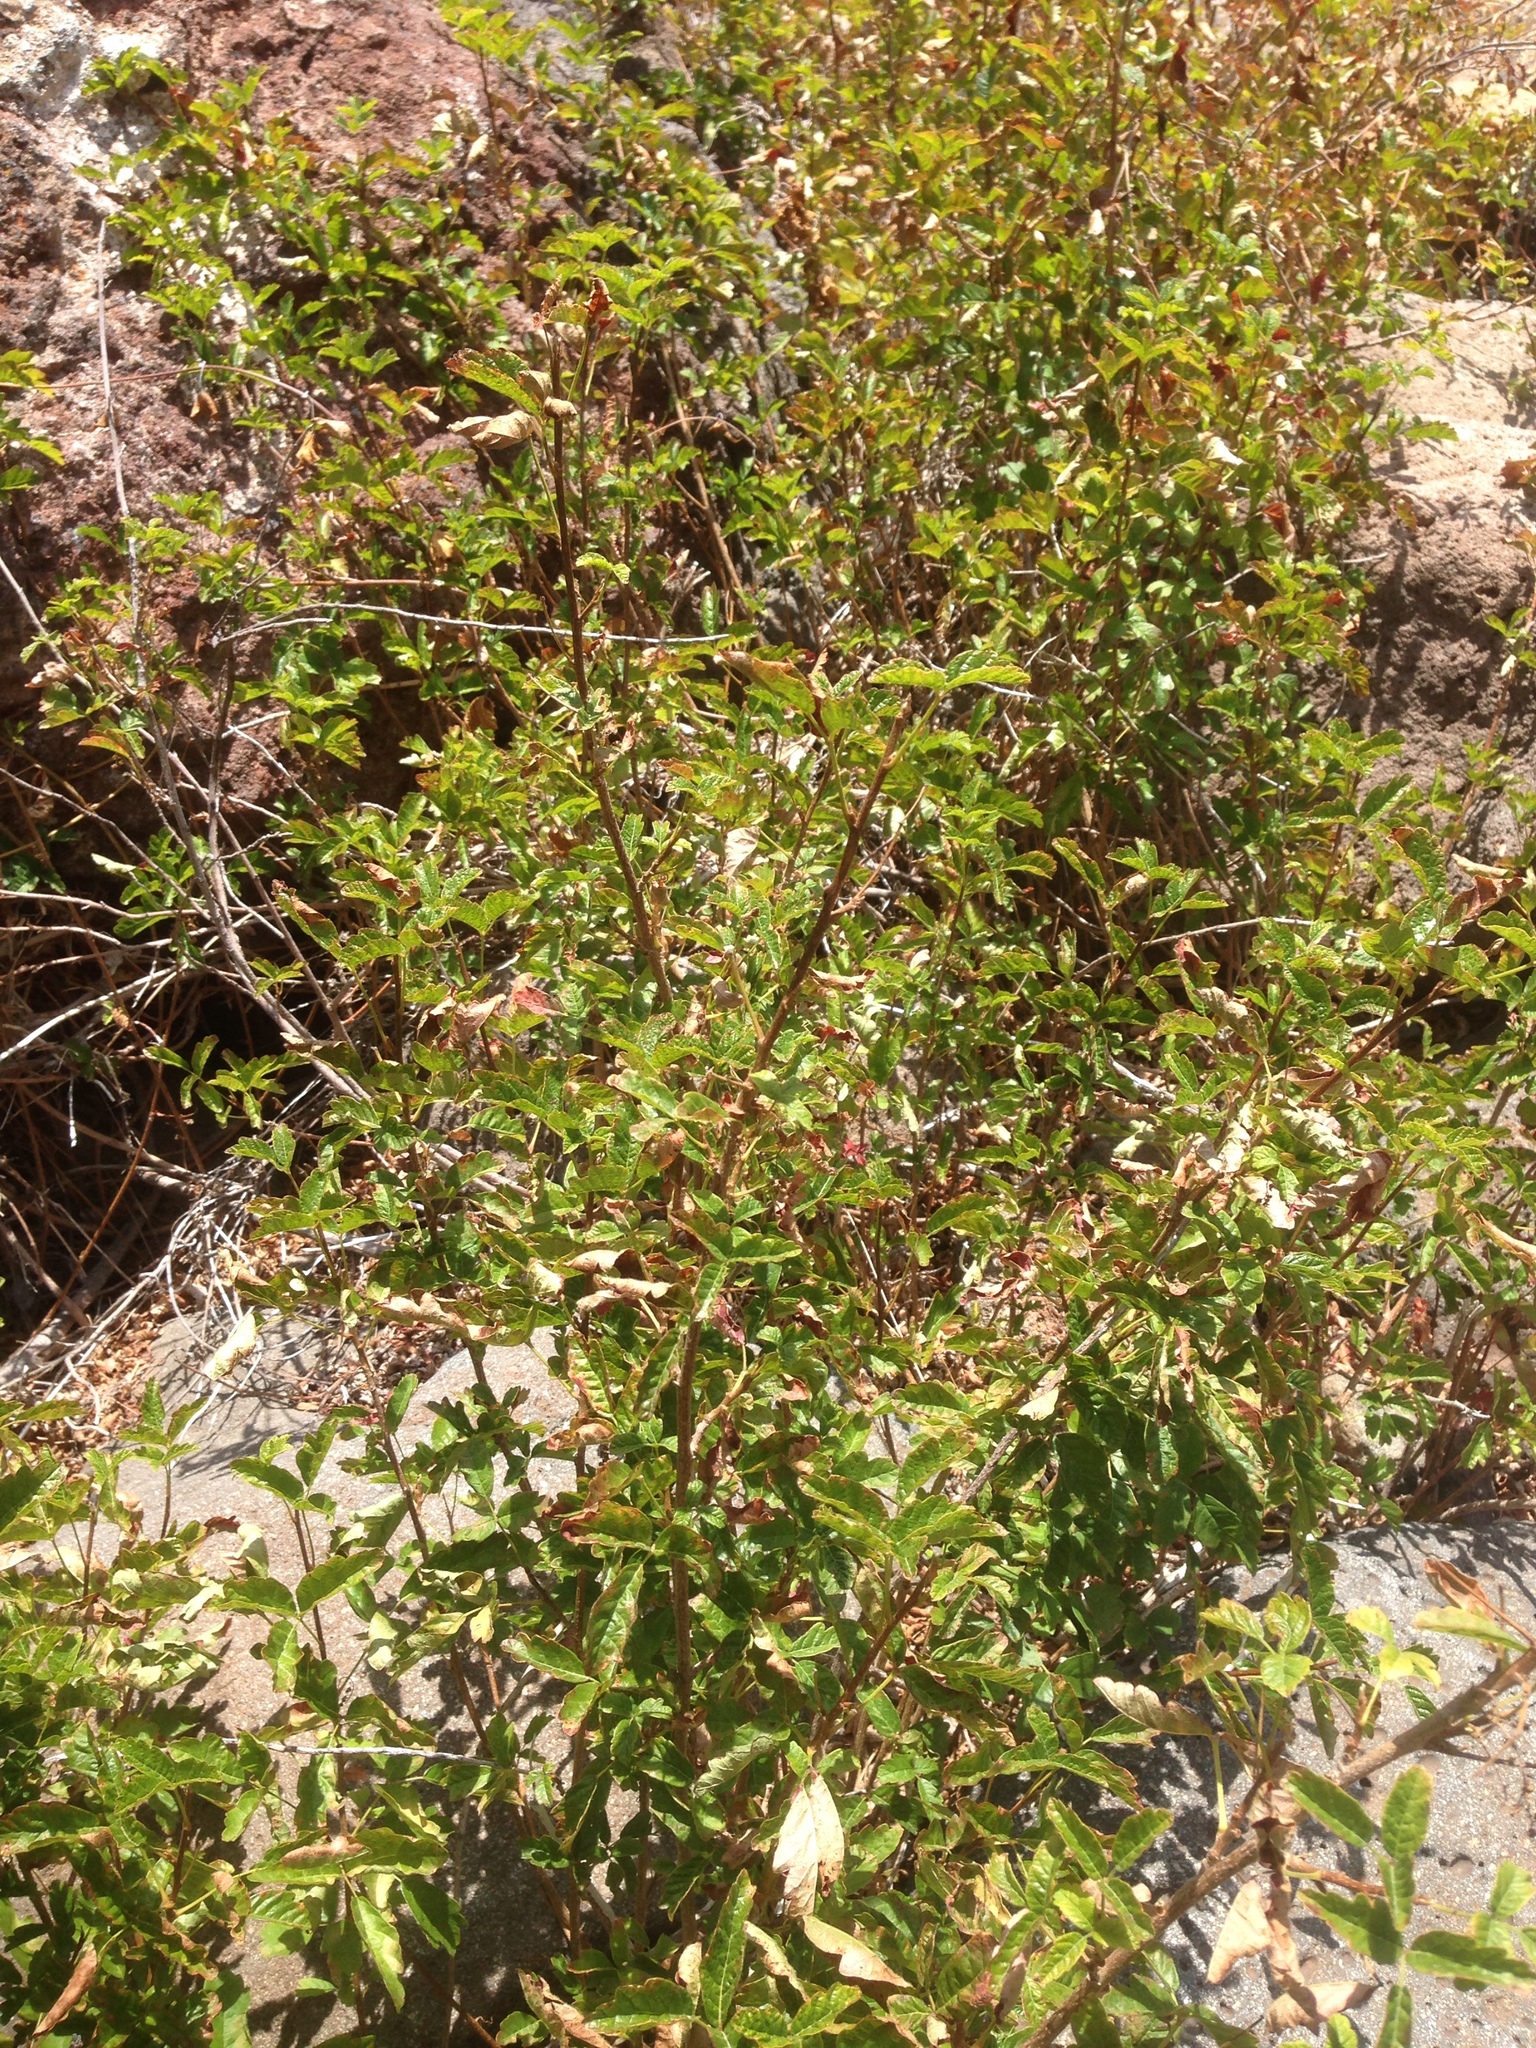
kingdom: Plantae
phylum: Tracheophyta
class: Magnoliopsida
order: Sapindales
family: Anacardiaceae
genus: Toxicodendron
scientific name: Toxicodendron diversilobum
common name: Pacific poison-oak
